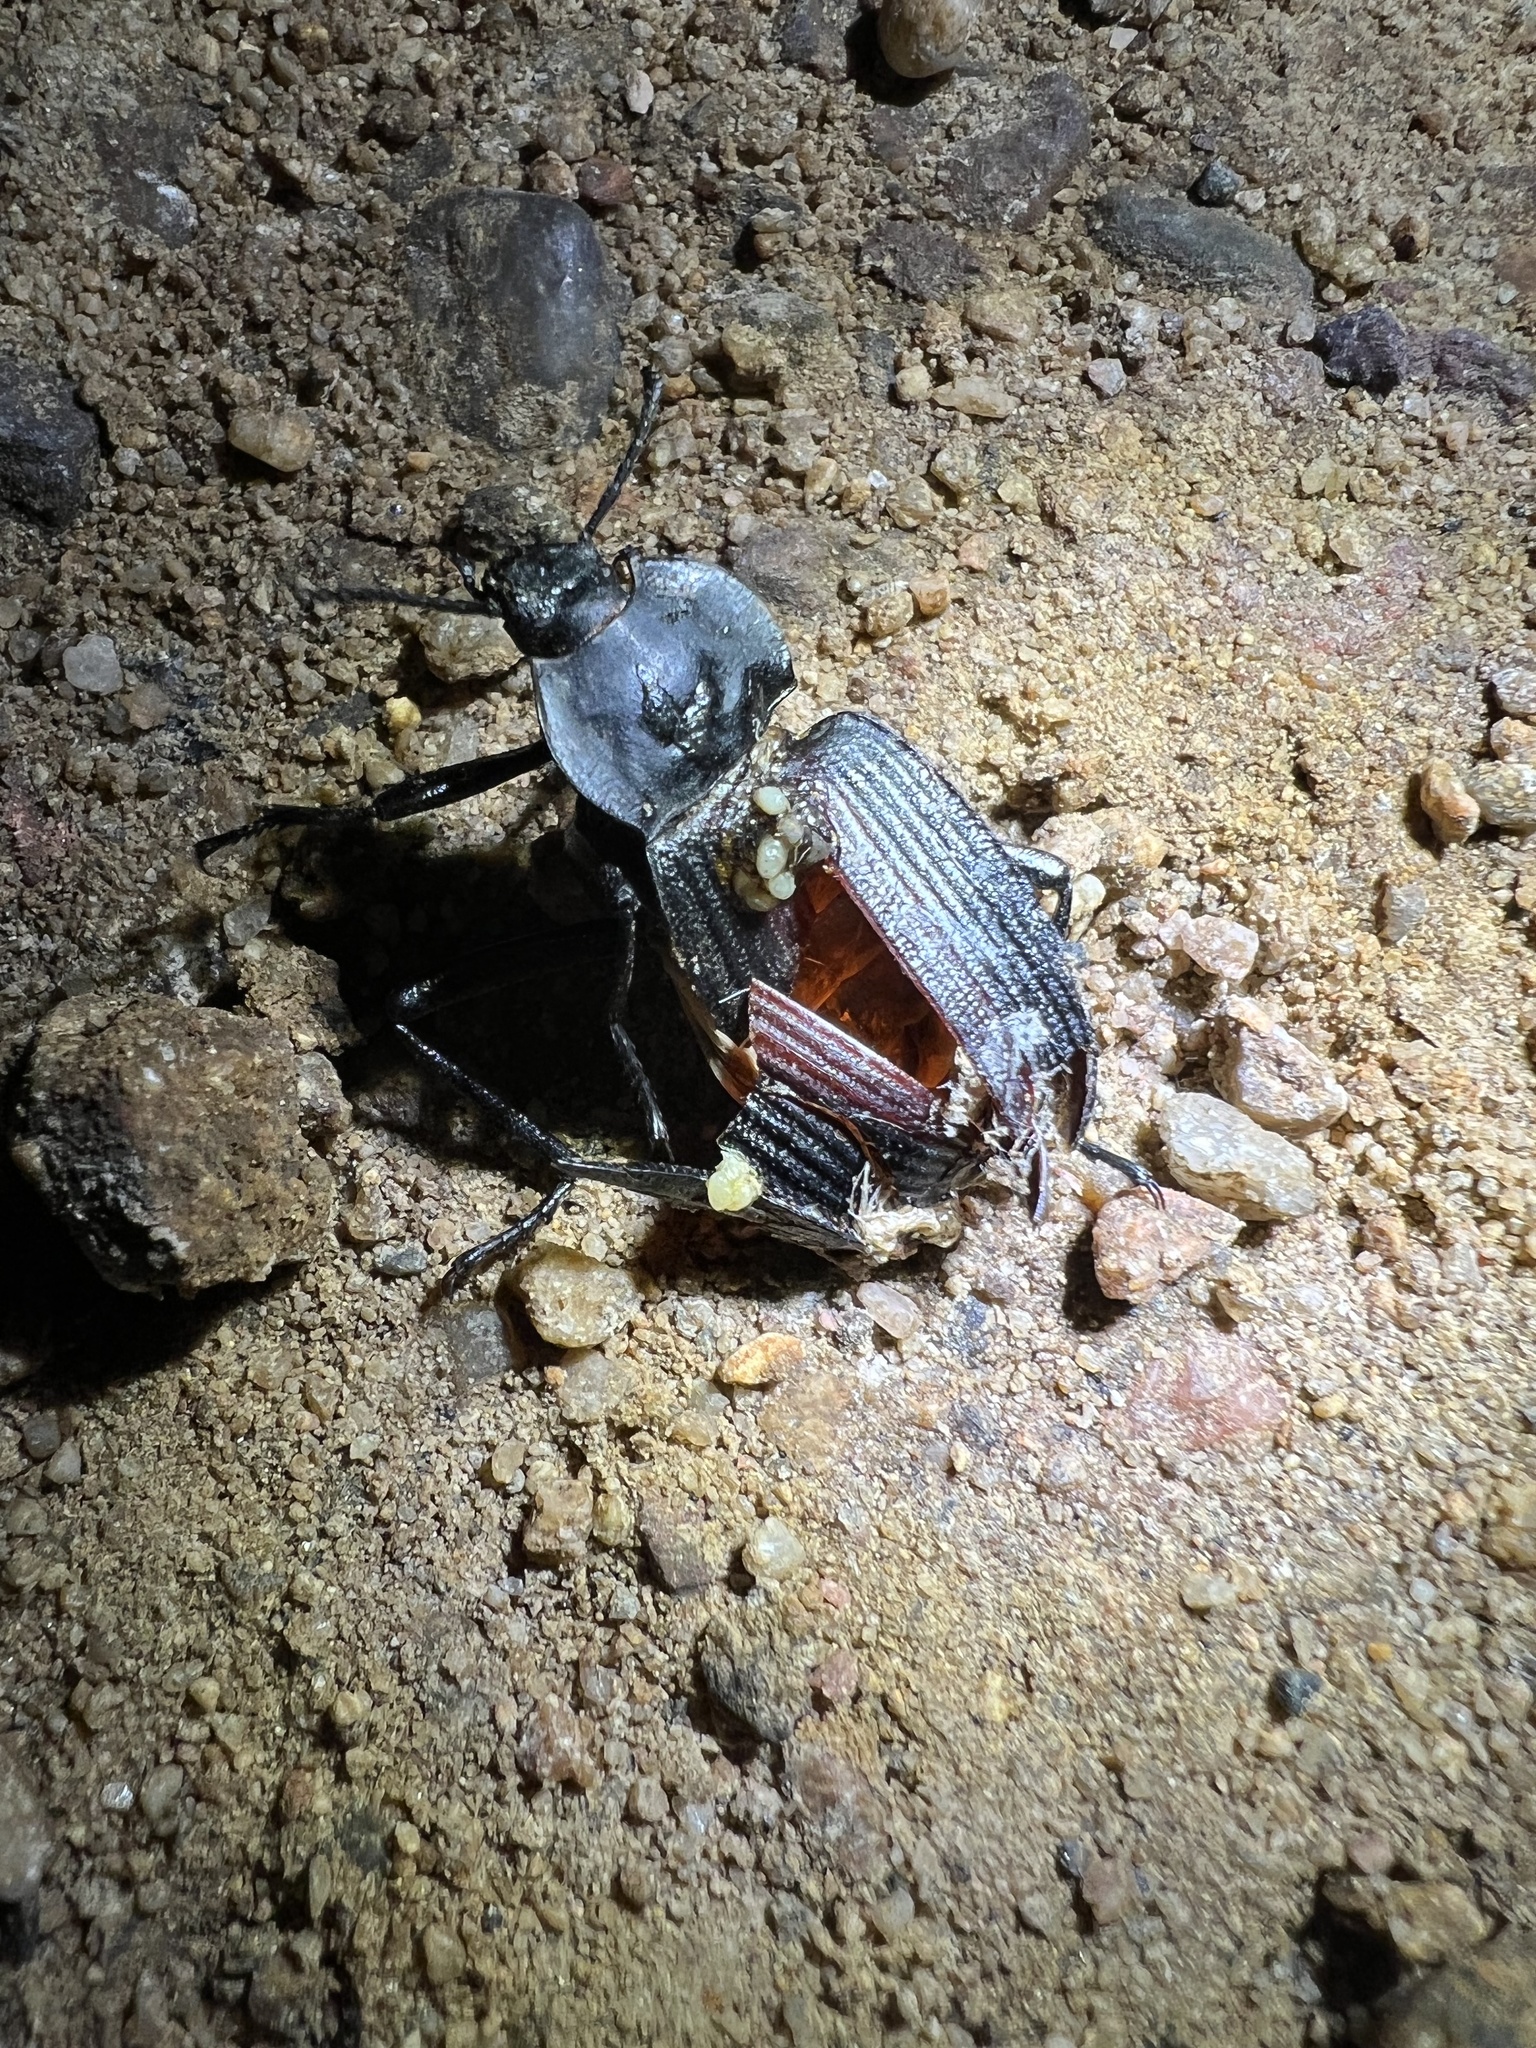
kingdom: Animalia
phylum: Arthropoda
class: Insecta
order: Coleoptera
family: Tenebrionidae
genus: Eleodes
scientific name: Eleodes suturalis
